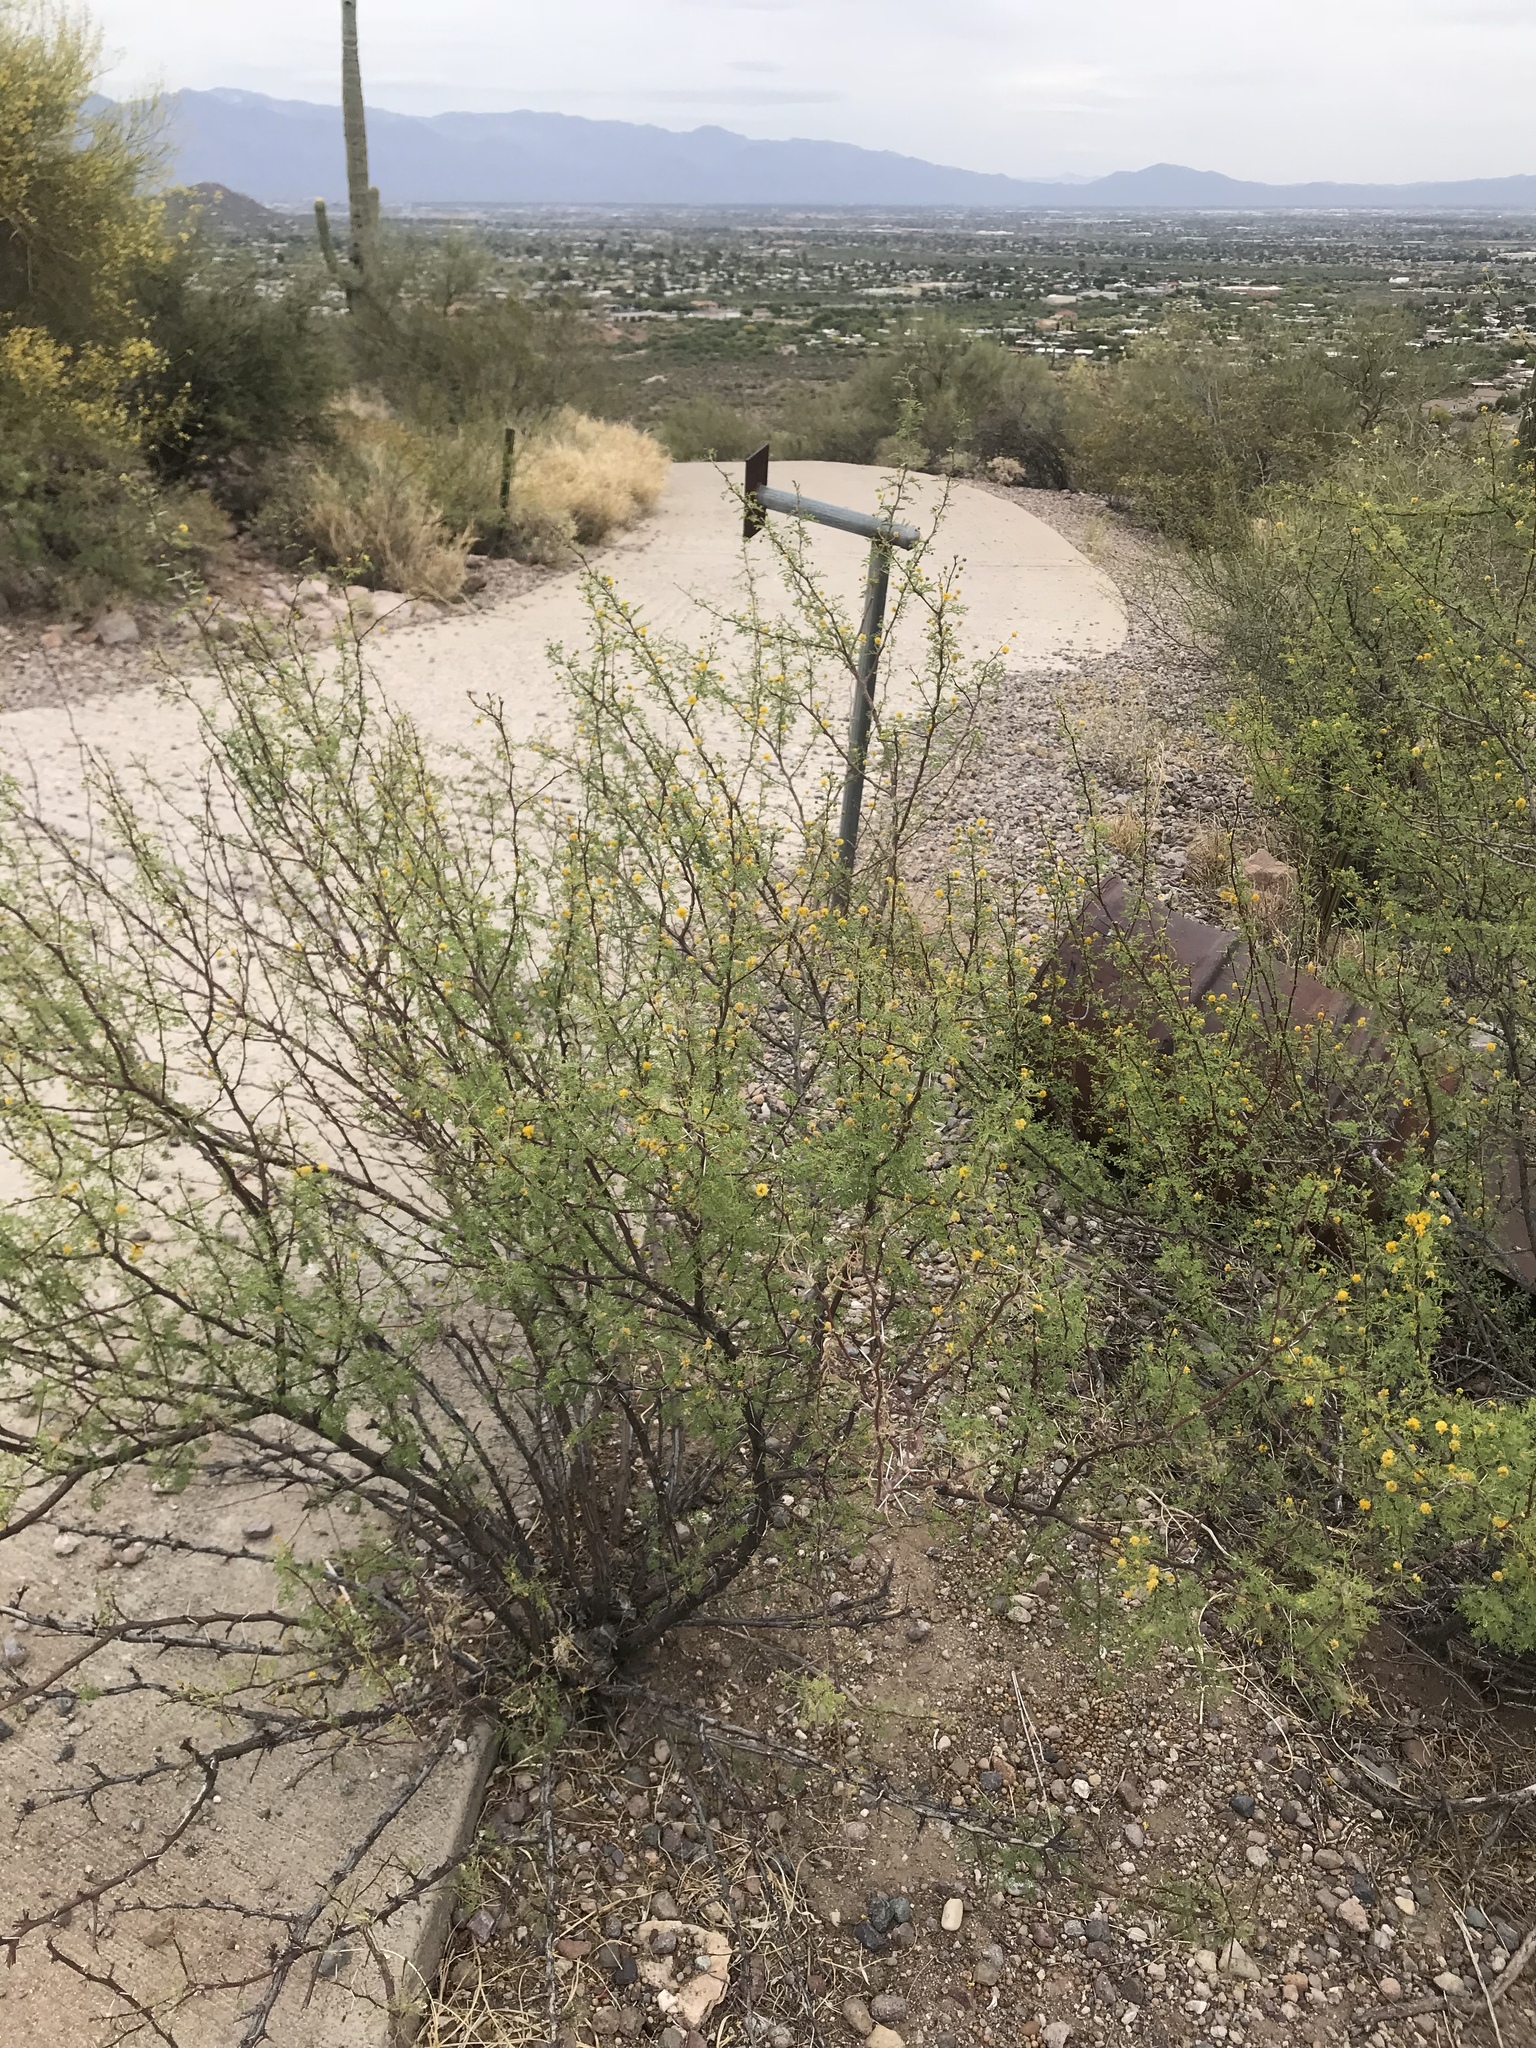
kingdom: Plantae
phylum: Tracheophyta
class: Magnoliopsida
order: Fabales
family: Fabaceae
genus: Vachellia
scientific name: Vachellia constricta
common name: Mescat acacia
